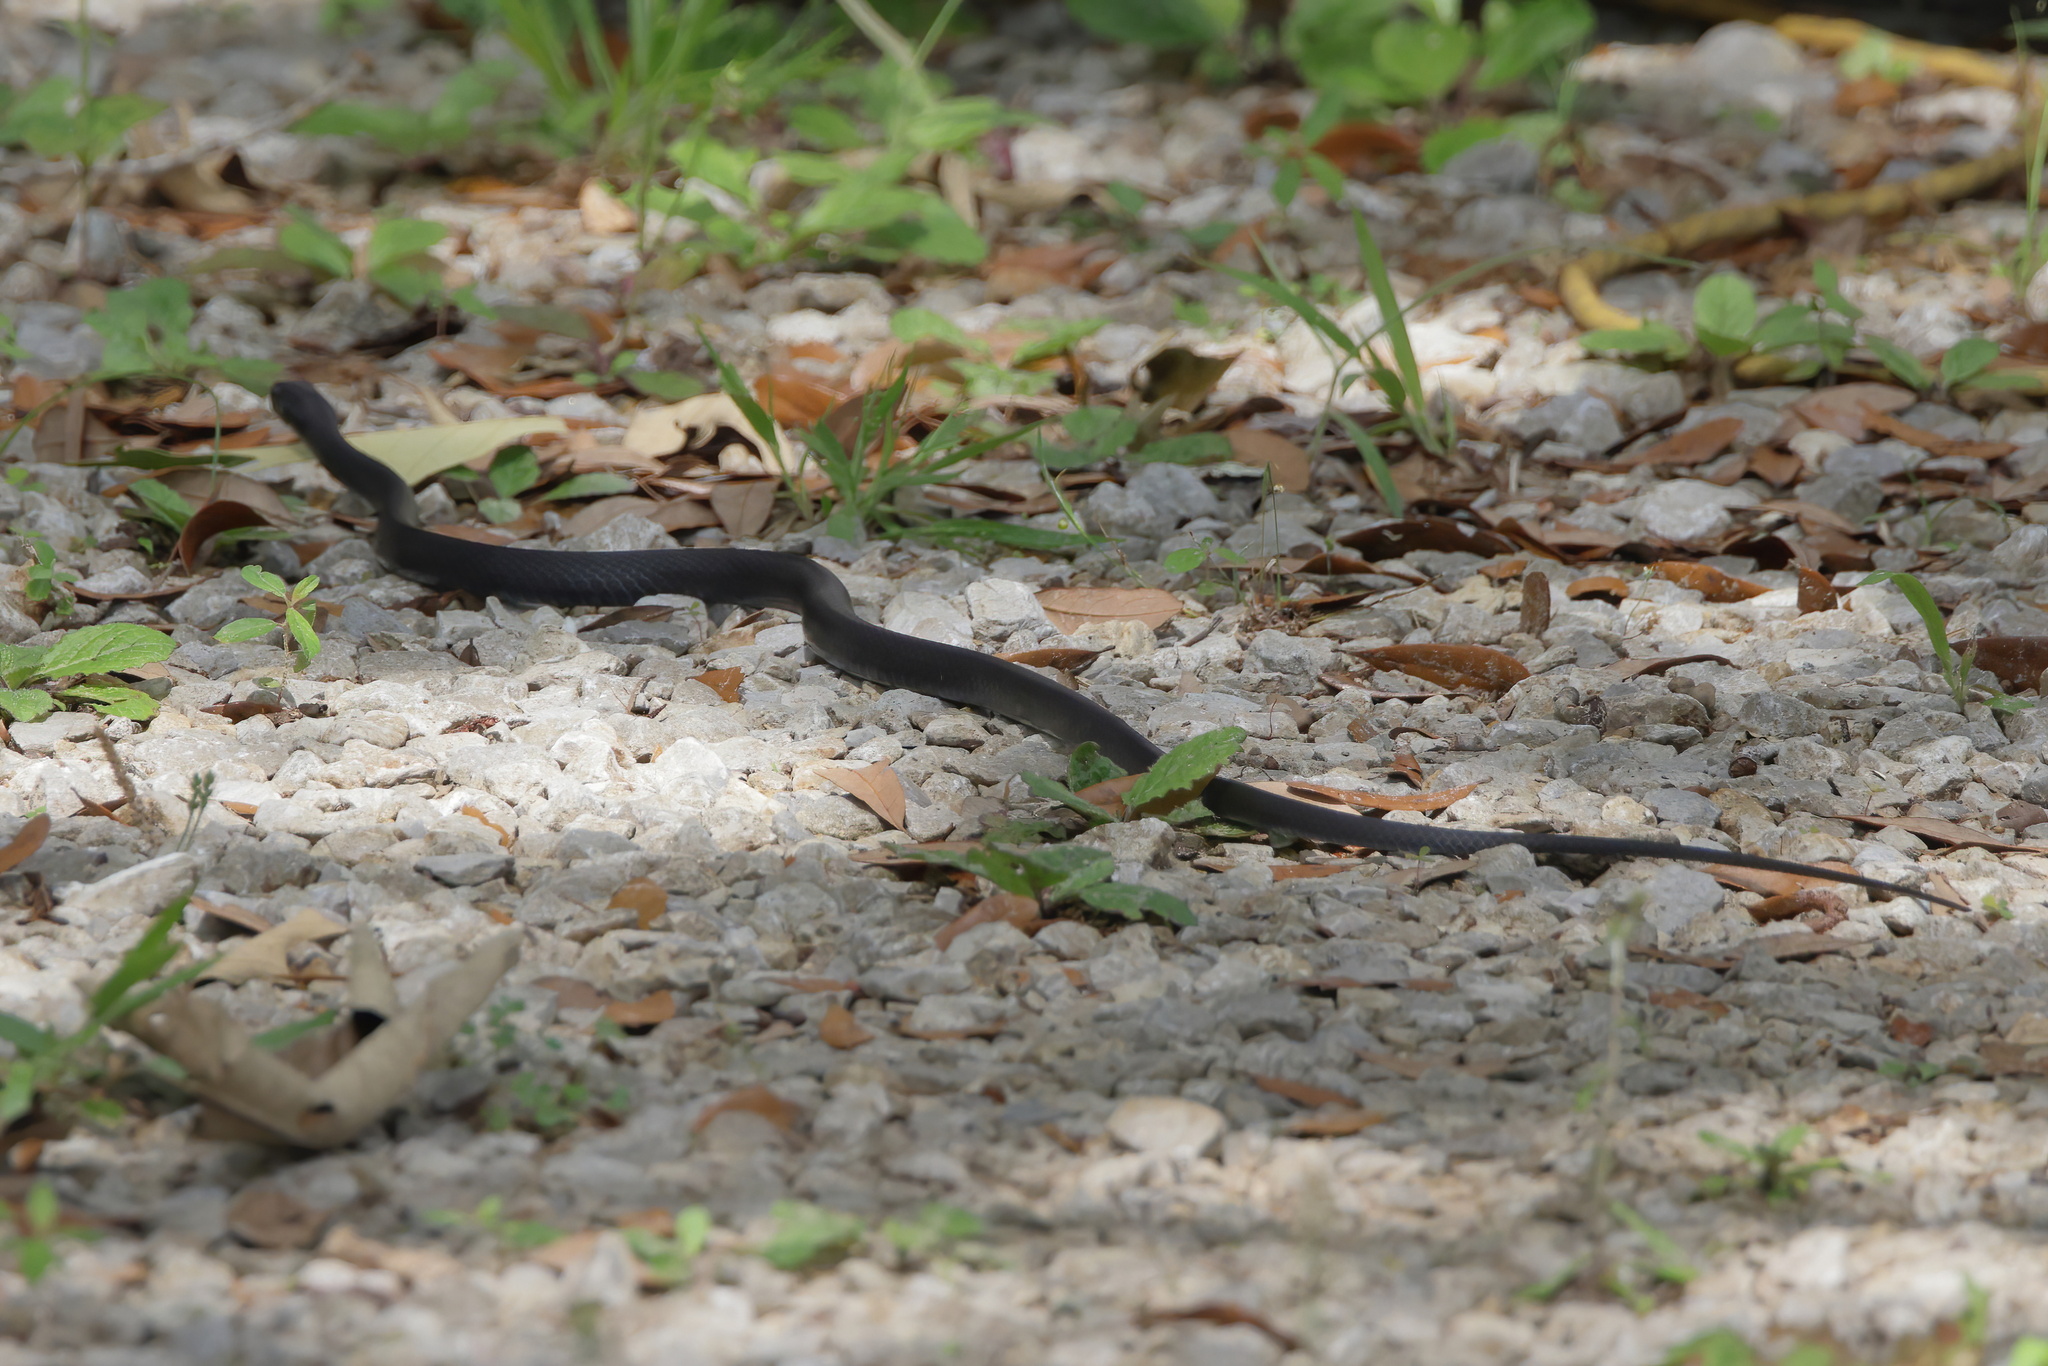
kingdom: Animalia
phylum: Chordata
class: Squamata
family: Colubridae
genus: Coluber
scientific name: Coluber constrictor
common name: Eastern racer
